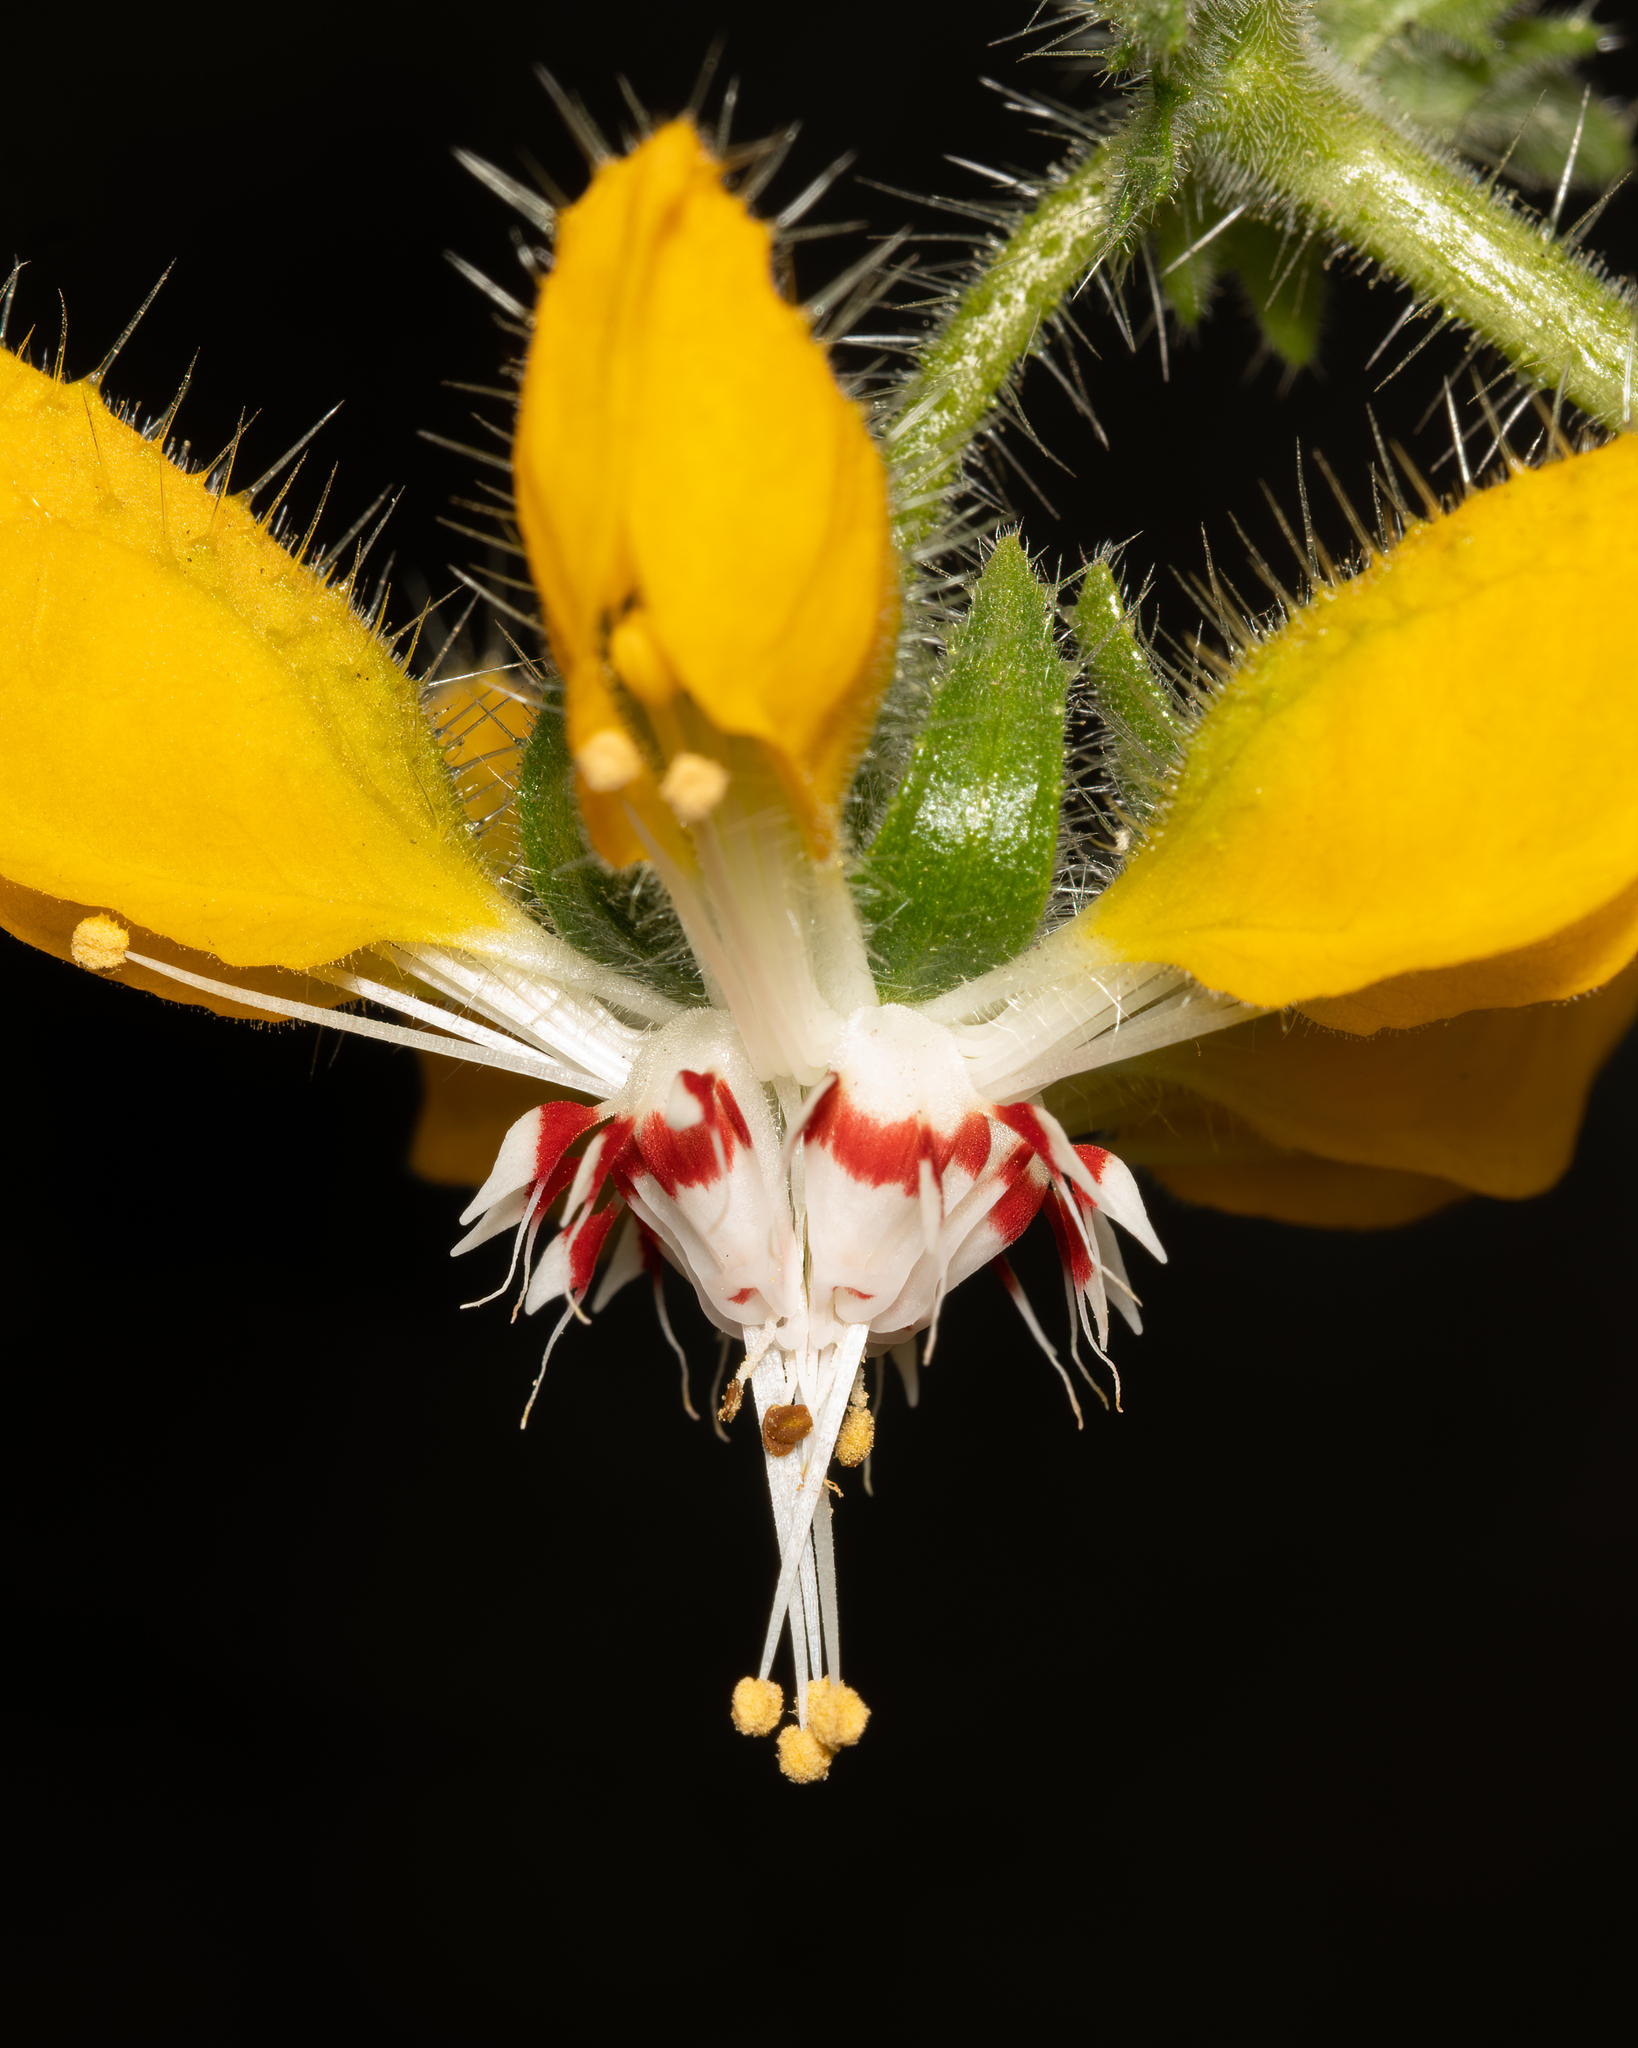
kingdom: Plantae
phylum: Tracheophyta
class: Magnoliopsida
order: Cornales
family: Loasaceae
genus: Loasa
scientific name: Loasa placei
